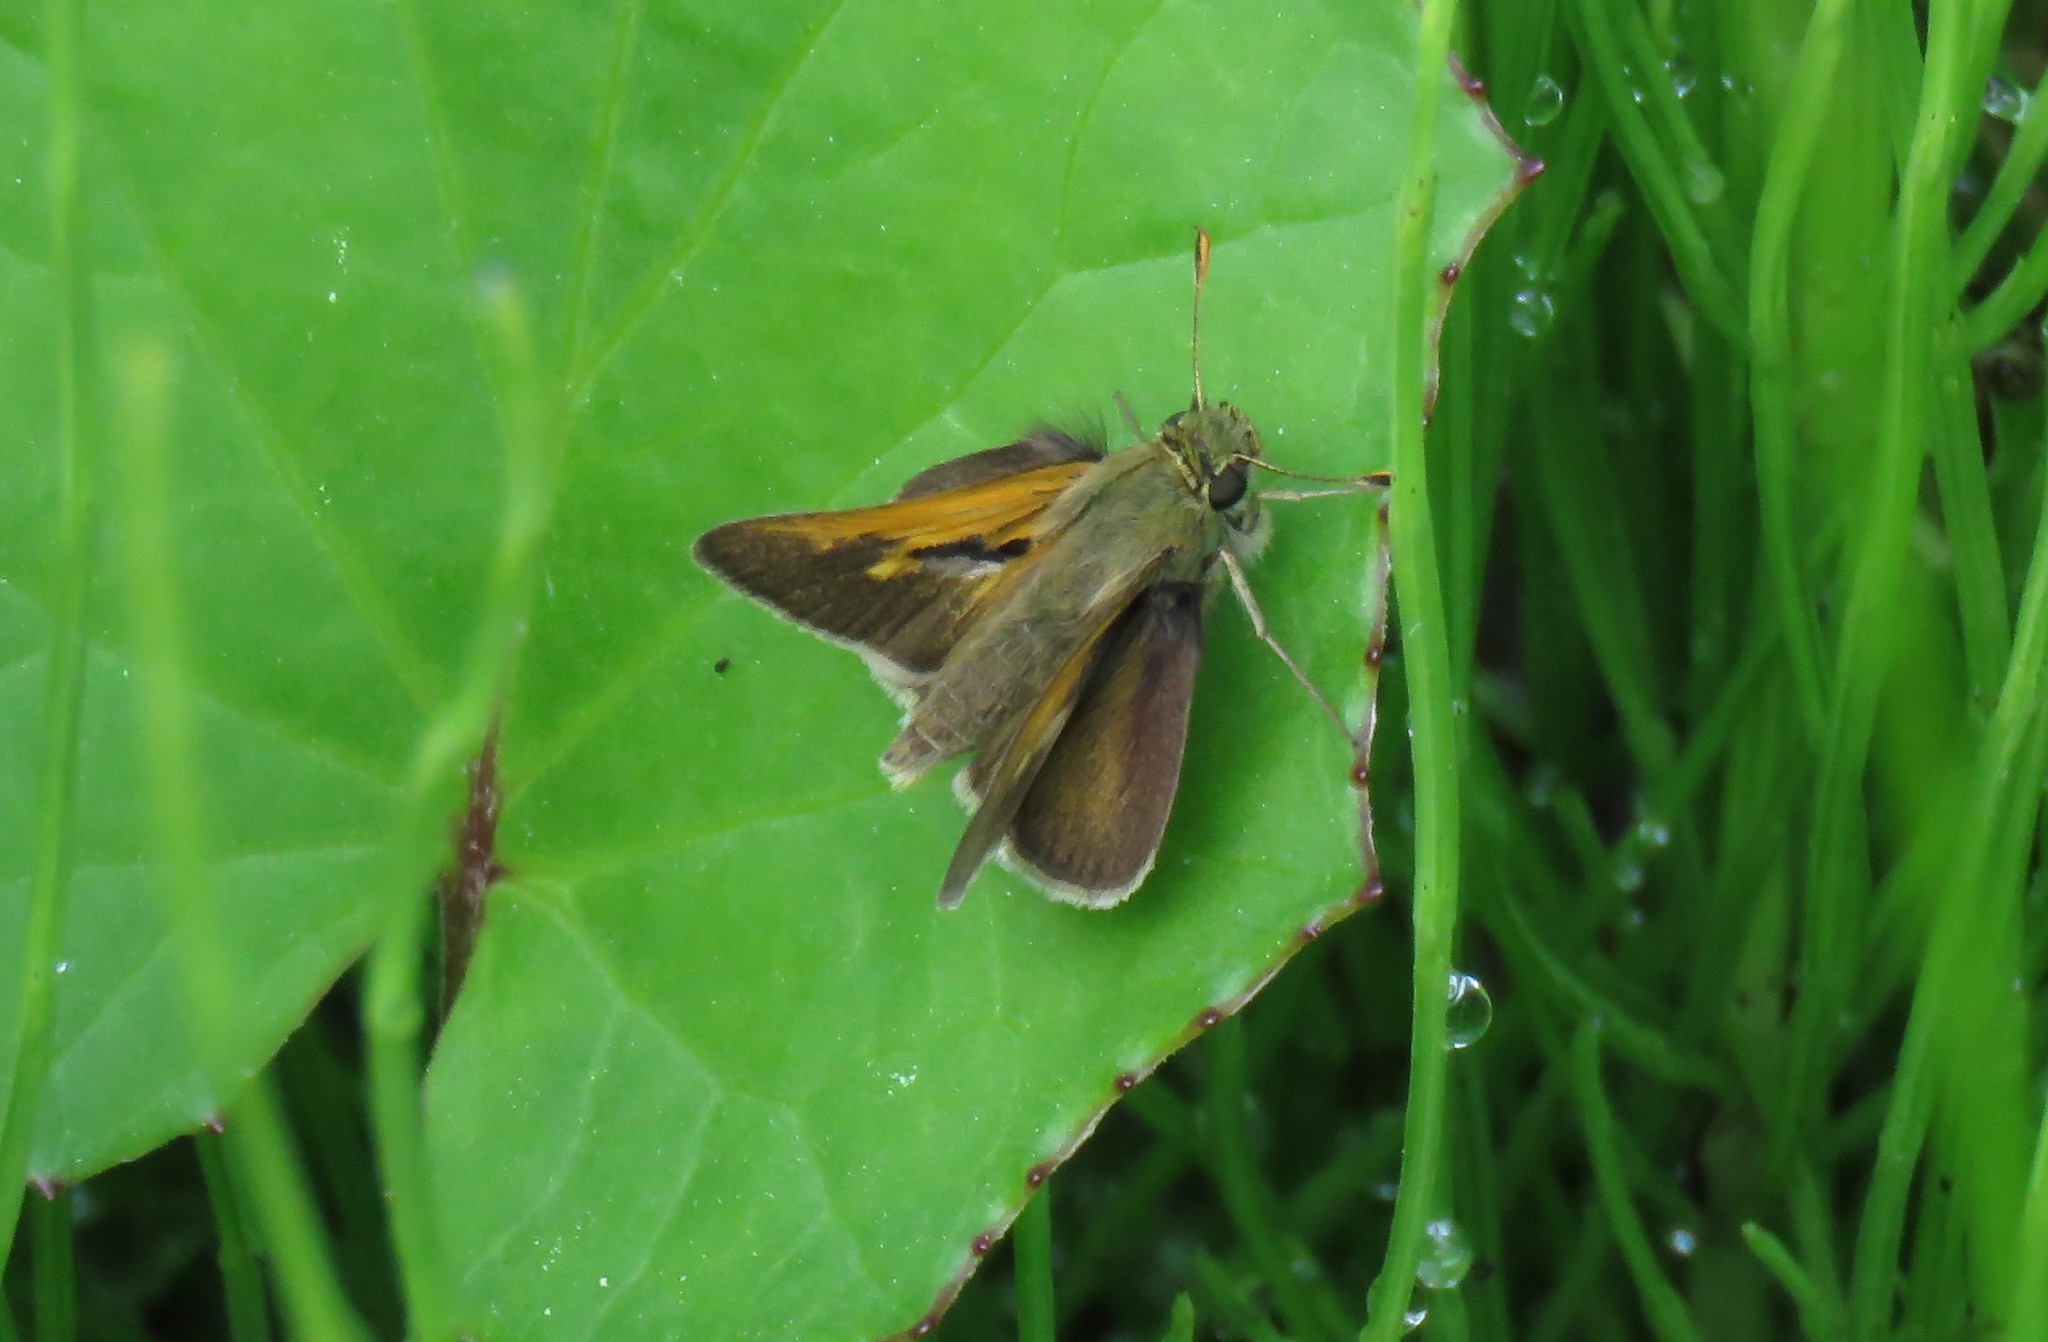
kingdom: Animalia
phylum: Arthropoda
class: Insecta
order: Lepidoptera
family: Hesperiidae
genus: Polites
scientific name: Polites themistocles
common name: Tawny-edged skipper
